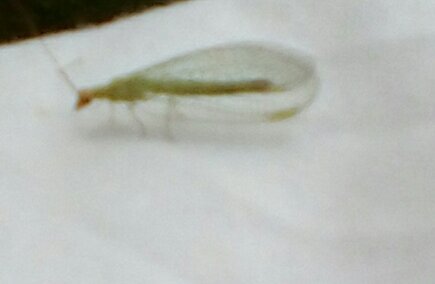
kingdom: Animalia
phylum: Arthropoda
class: Insecta
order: Neuroptera
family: Chrysopidae
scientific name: Chrysopidae
